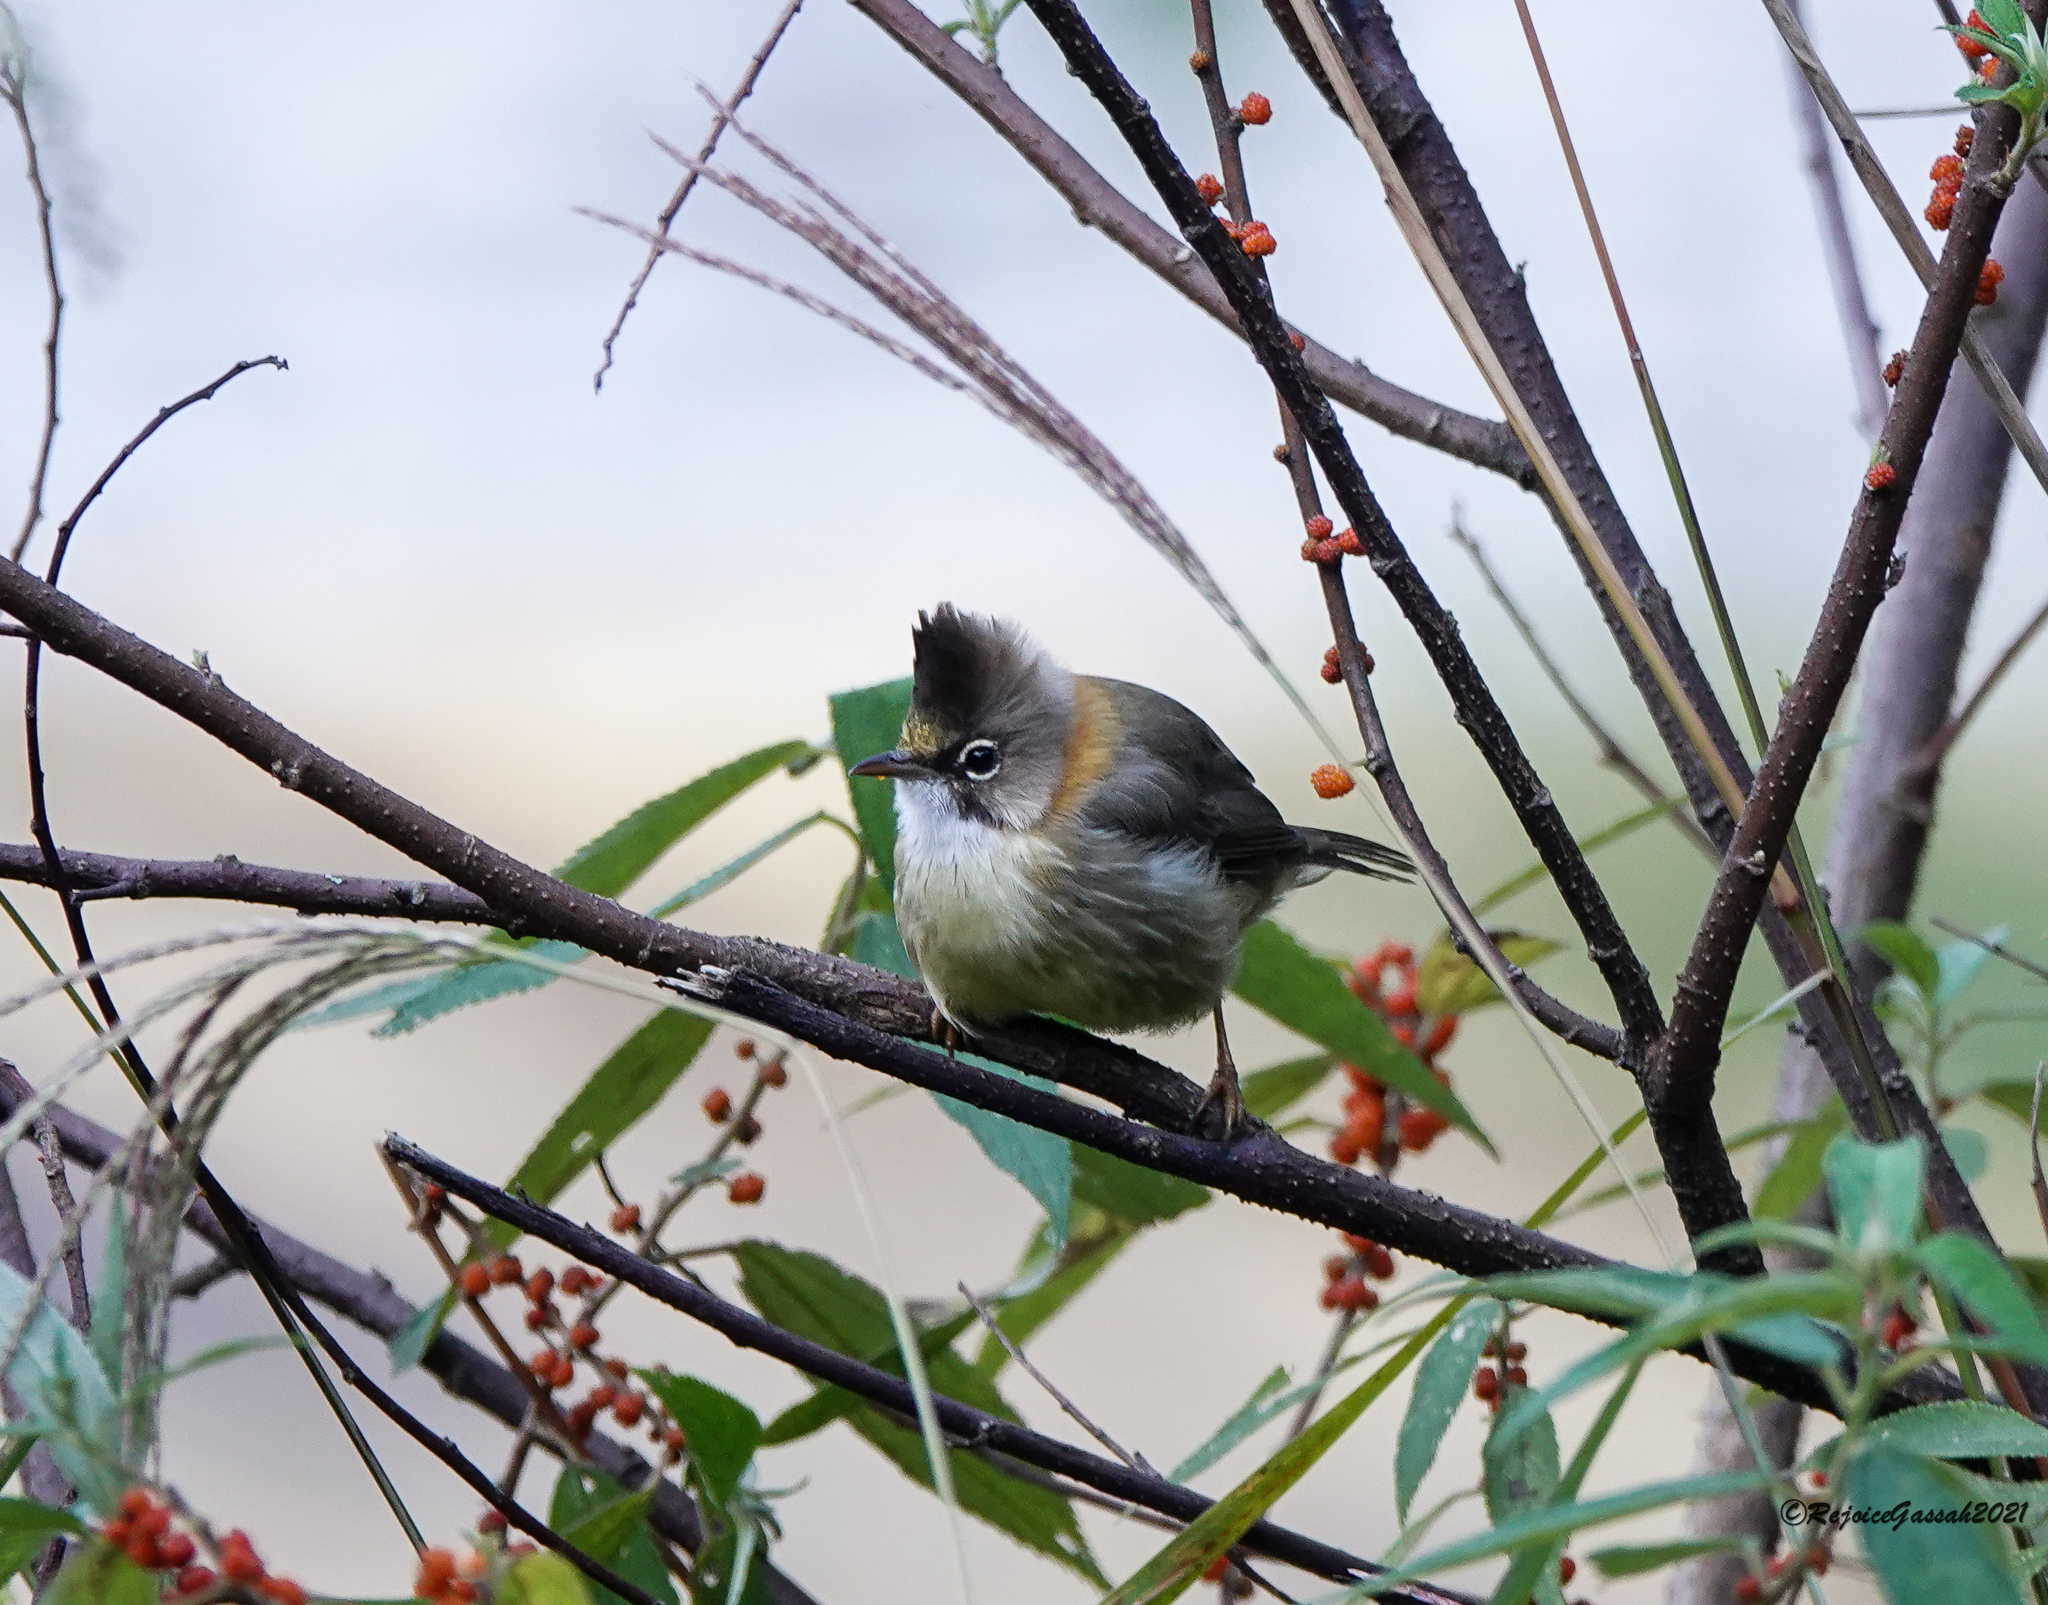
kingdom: Animalia
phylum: Chordata
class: Aves
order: Passeriformes
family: Zosteropidae
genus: Yuhina
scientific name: Yuhina flavicollis
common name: Whiskered yuhina
